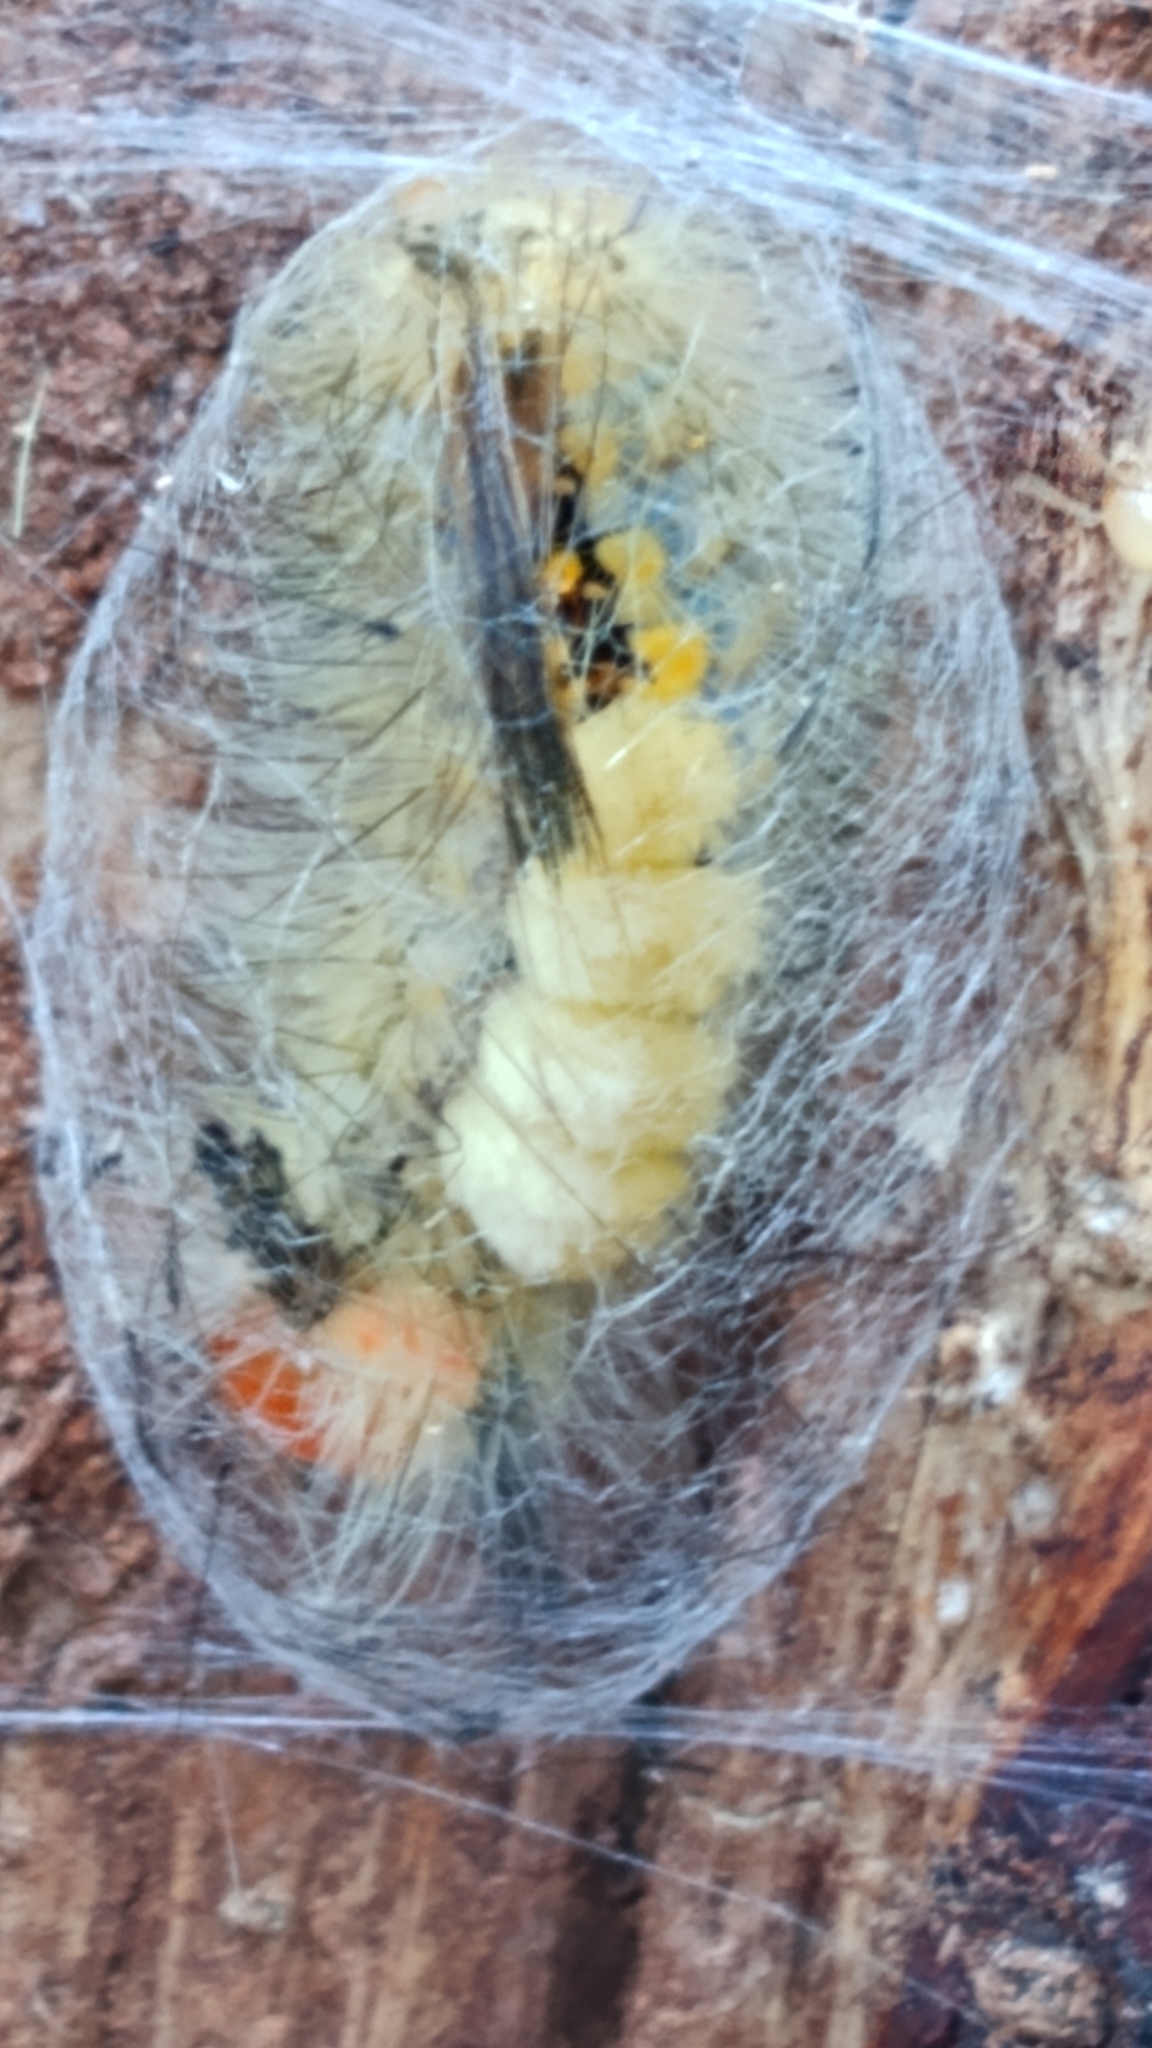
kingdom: Animalia
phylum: Arthropoda
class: Insecta
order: Lepidoptera
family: Erebidae
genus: Orgyia
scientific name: Orgyia detrita
